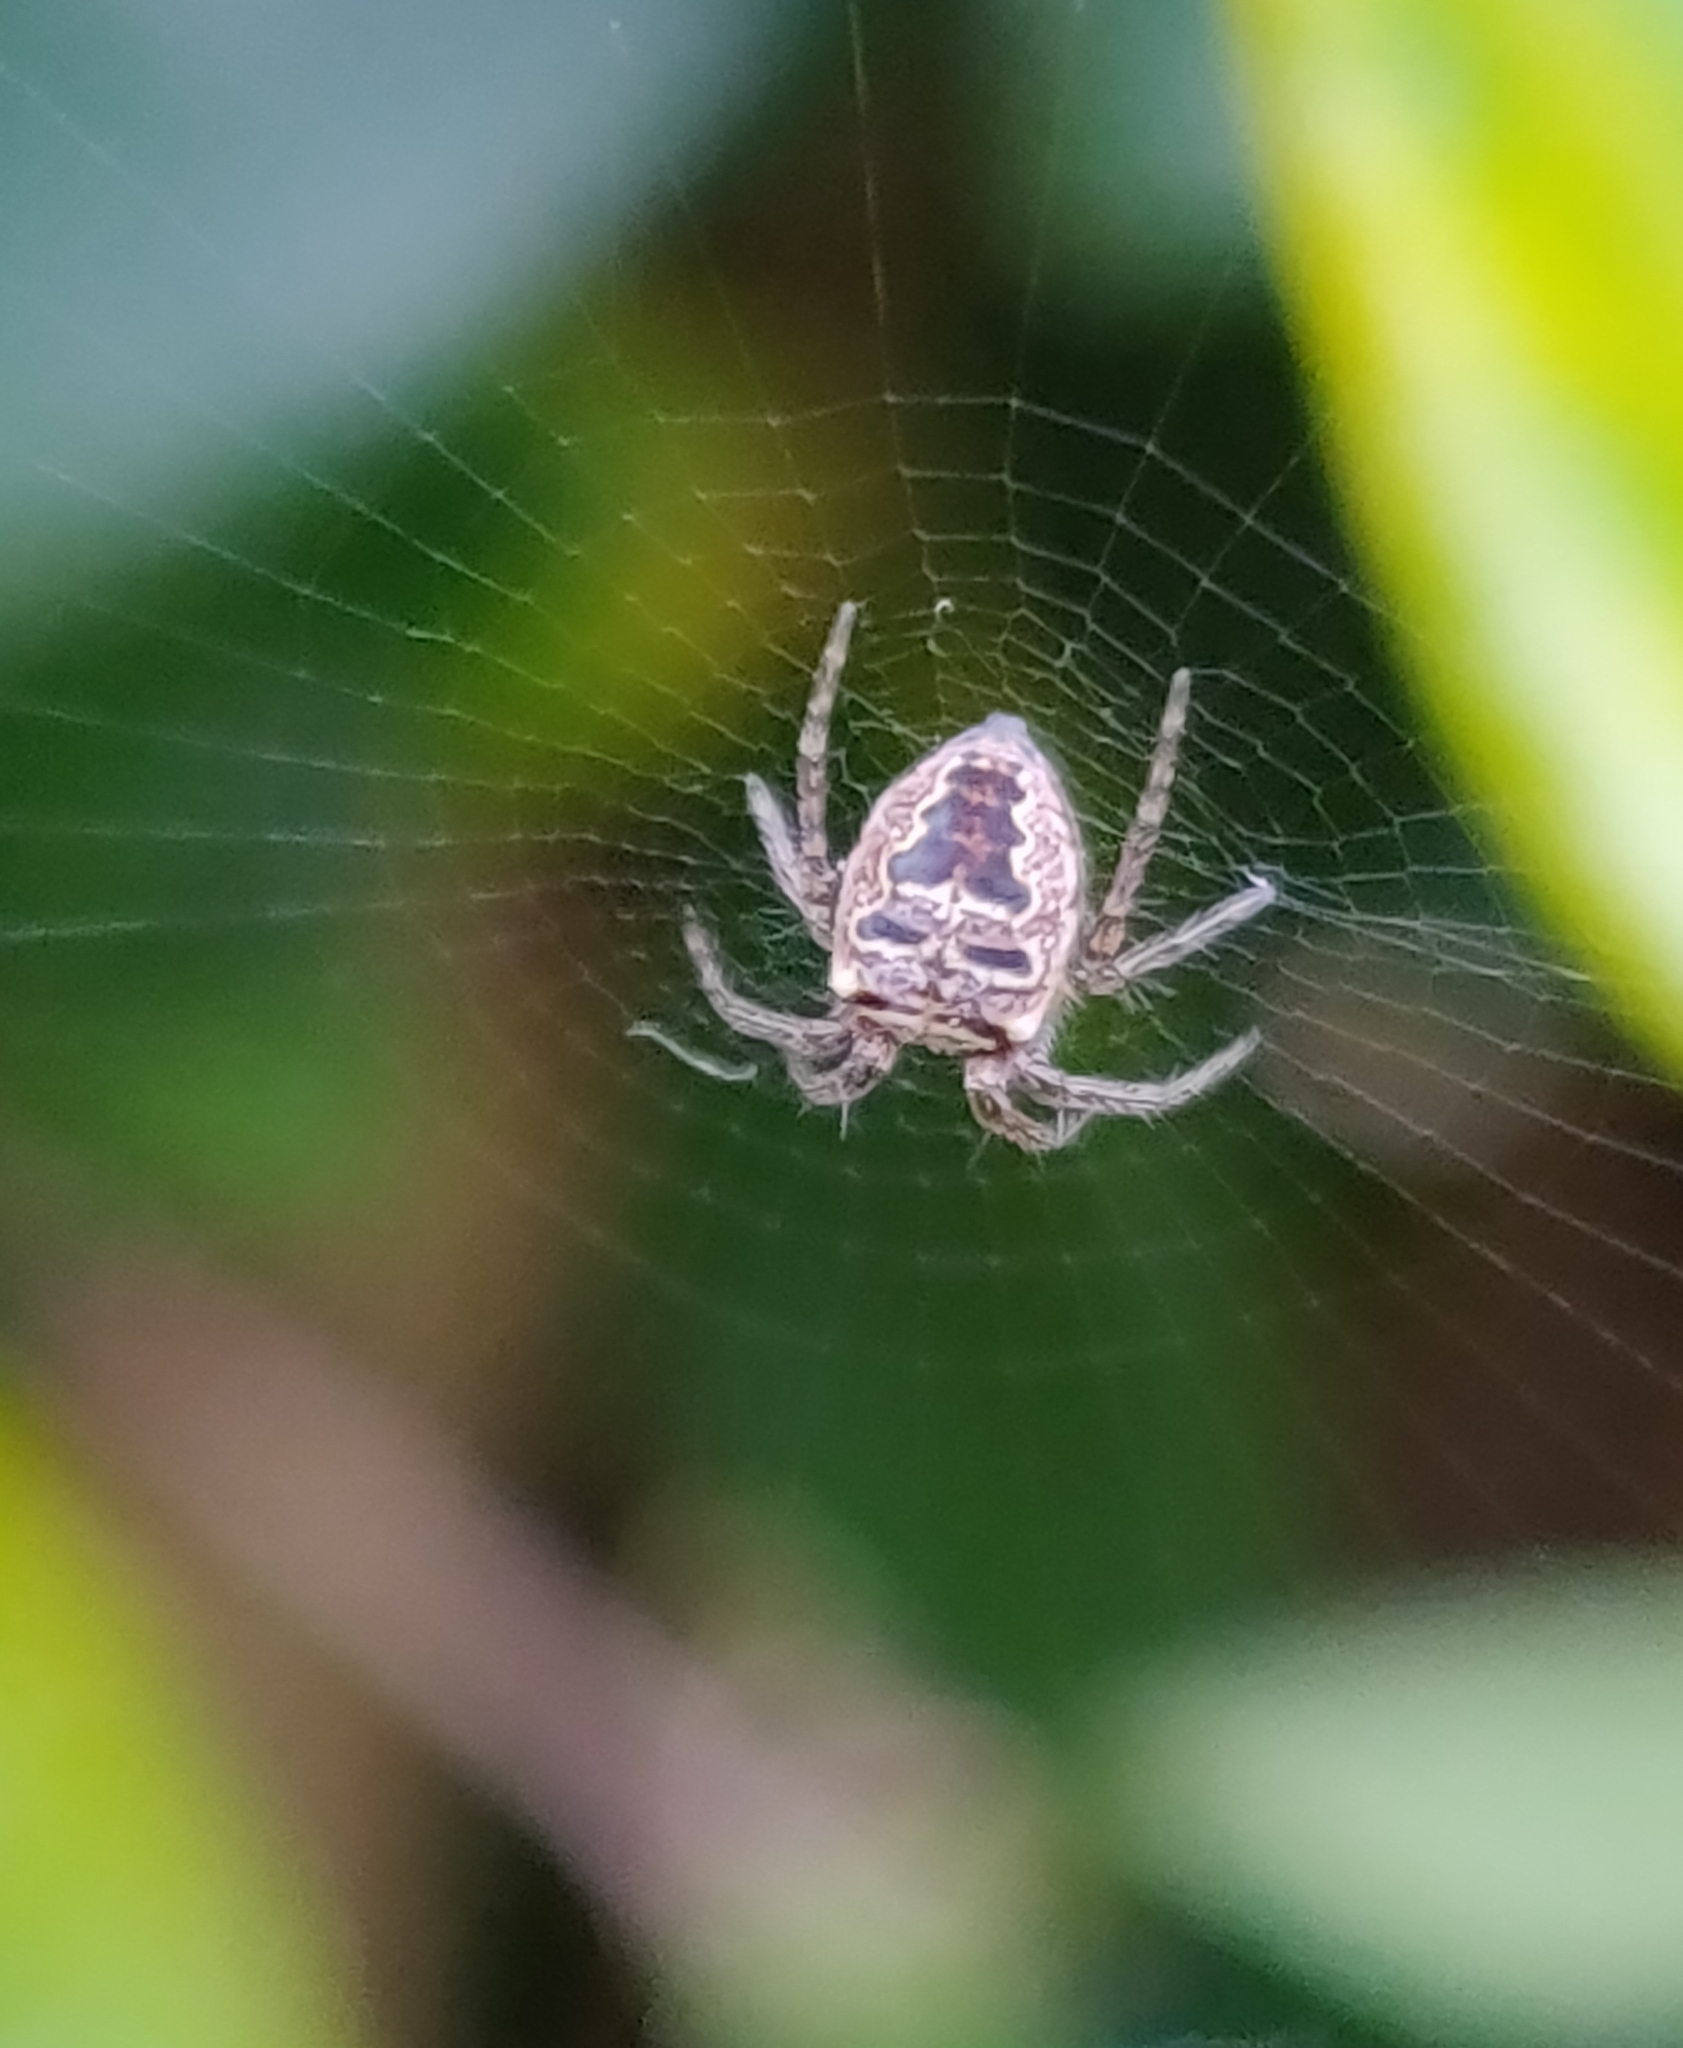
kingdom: Animalia
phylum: Arthropoda
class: Arachnida
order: Araneae
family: Araneidae
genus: Zilla
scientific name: Zilla diodia
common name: Zilla diodia
